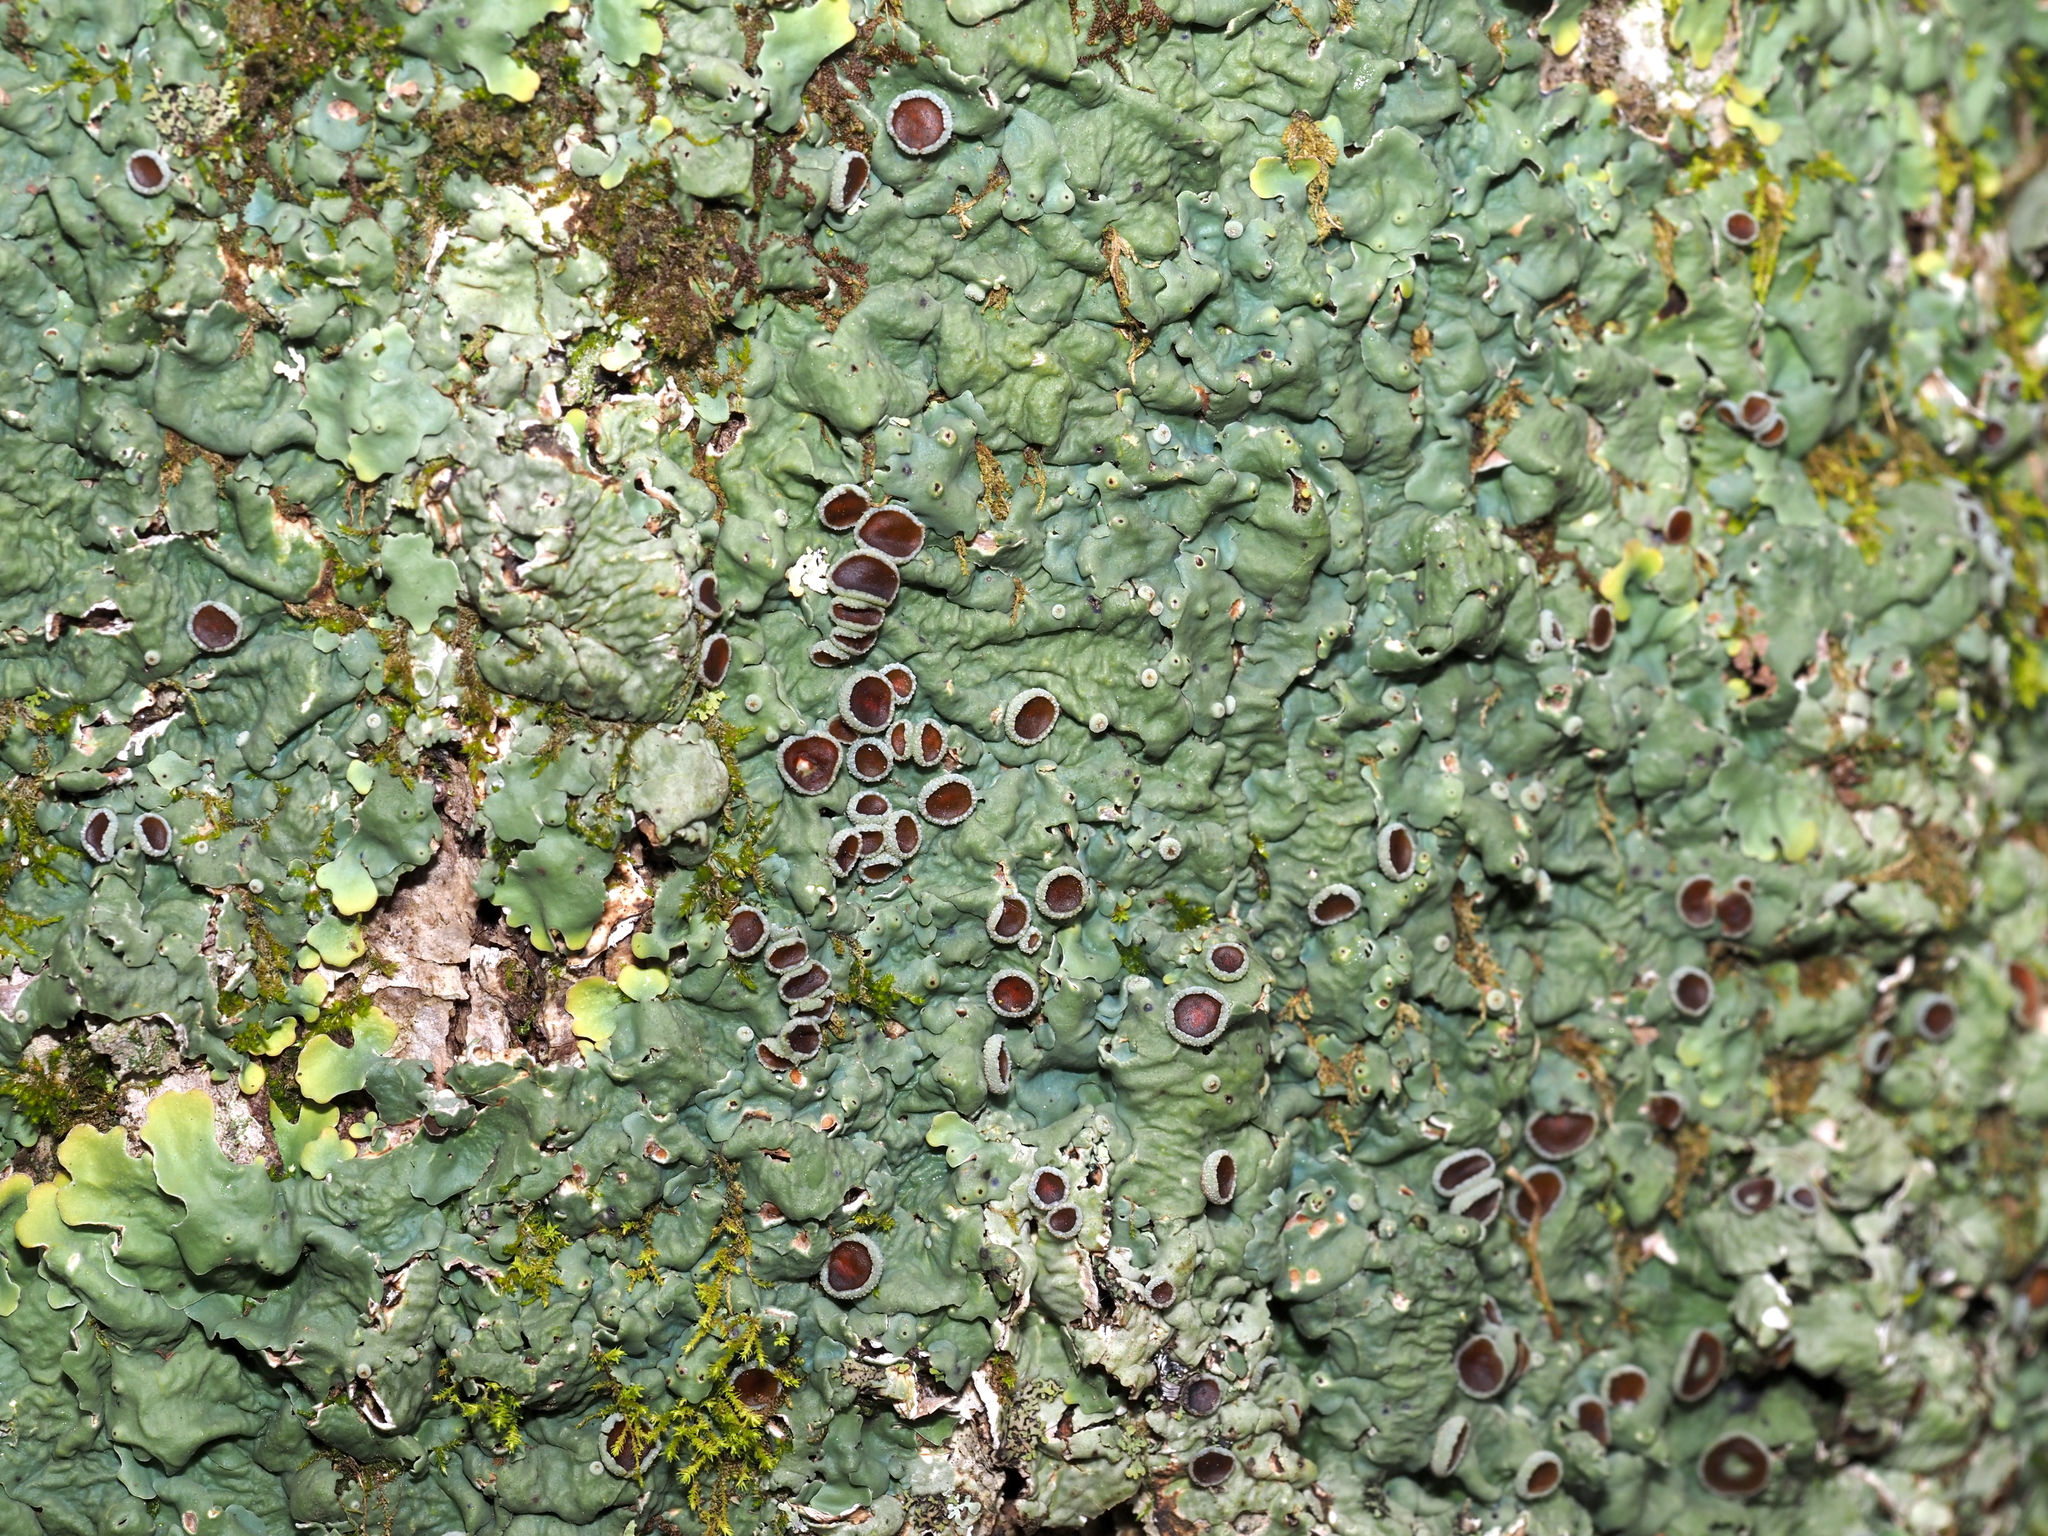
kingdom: Fungi
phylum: Ascomycota
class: Lecanoromycetes
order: Peltigerales
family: Lobariaceae
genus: Ricasolia
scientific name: Ricasolia quercizans
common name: Smooth lungwort
